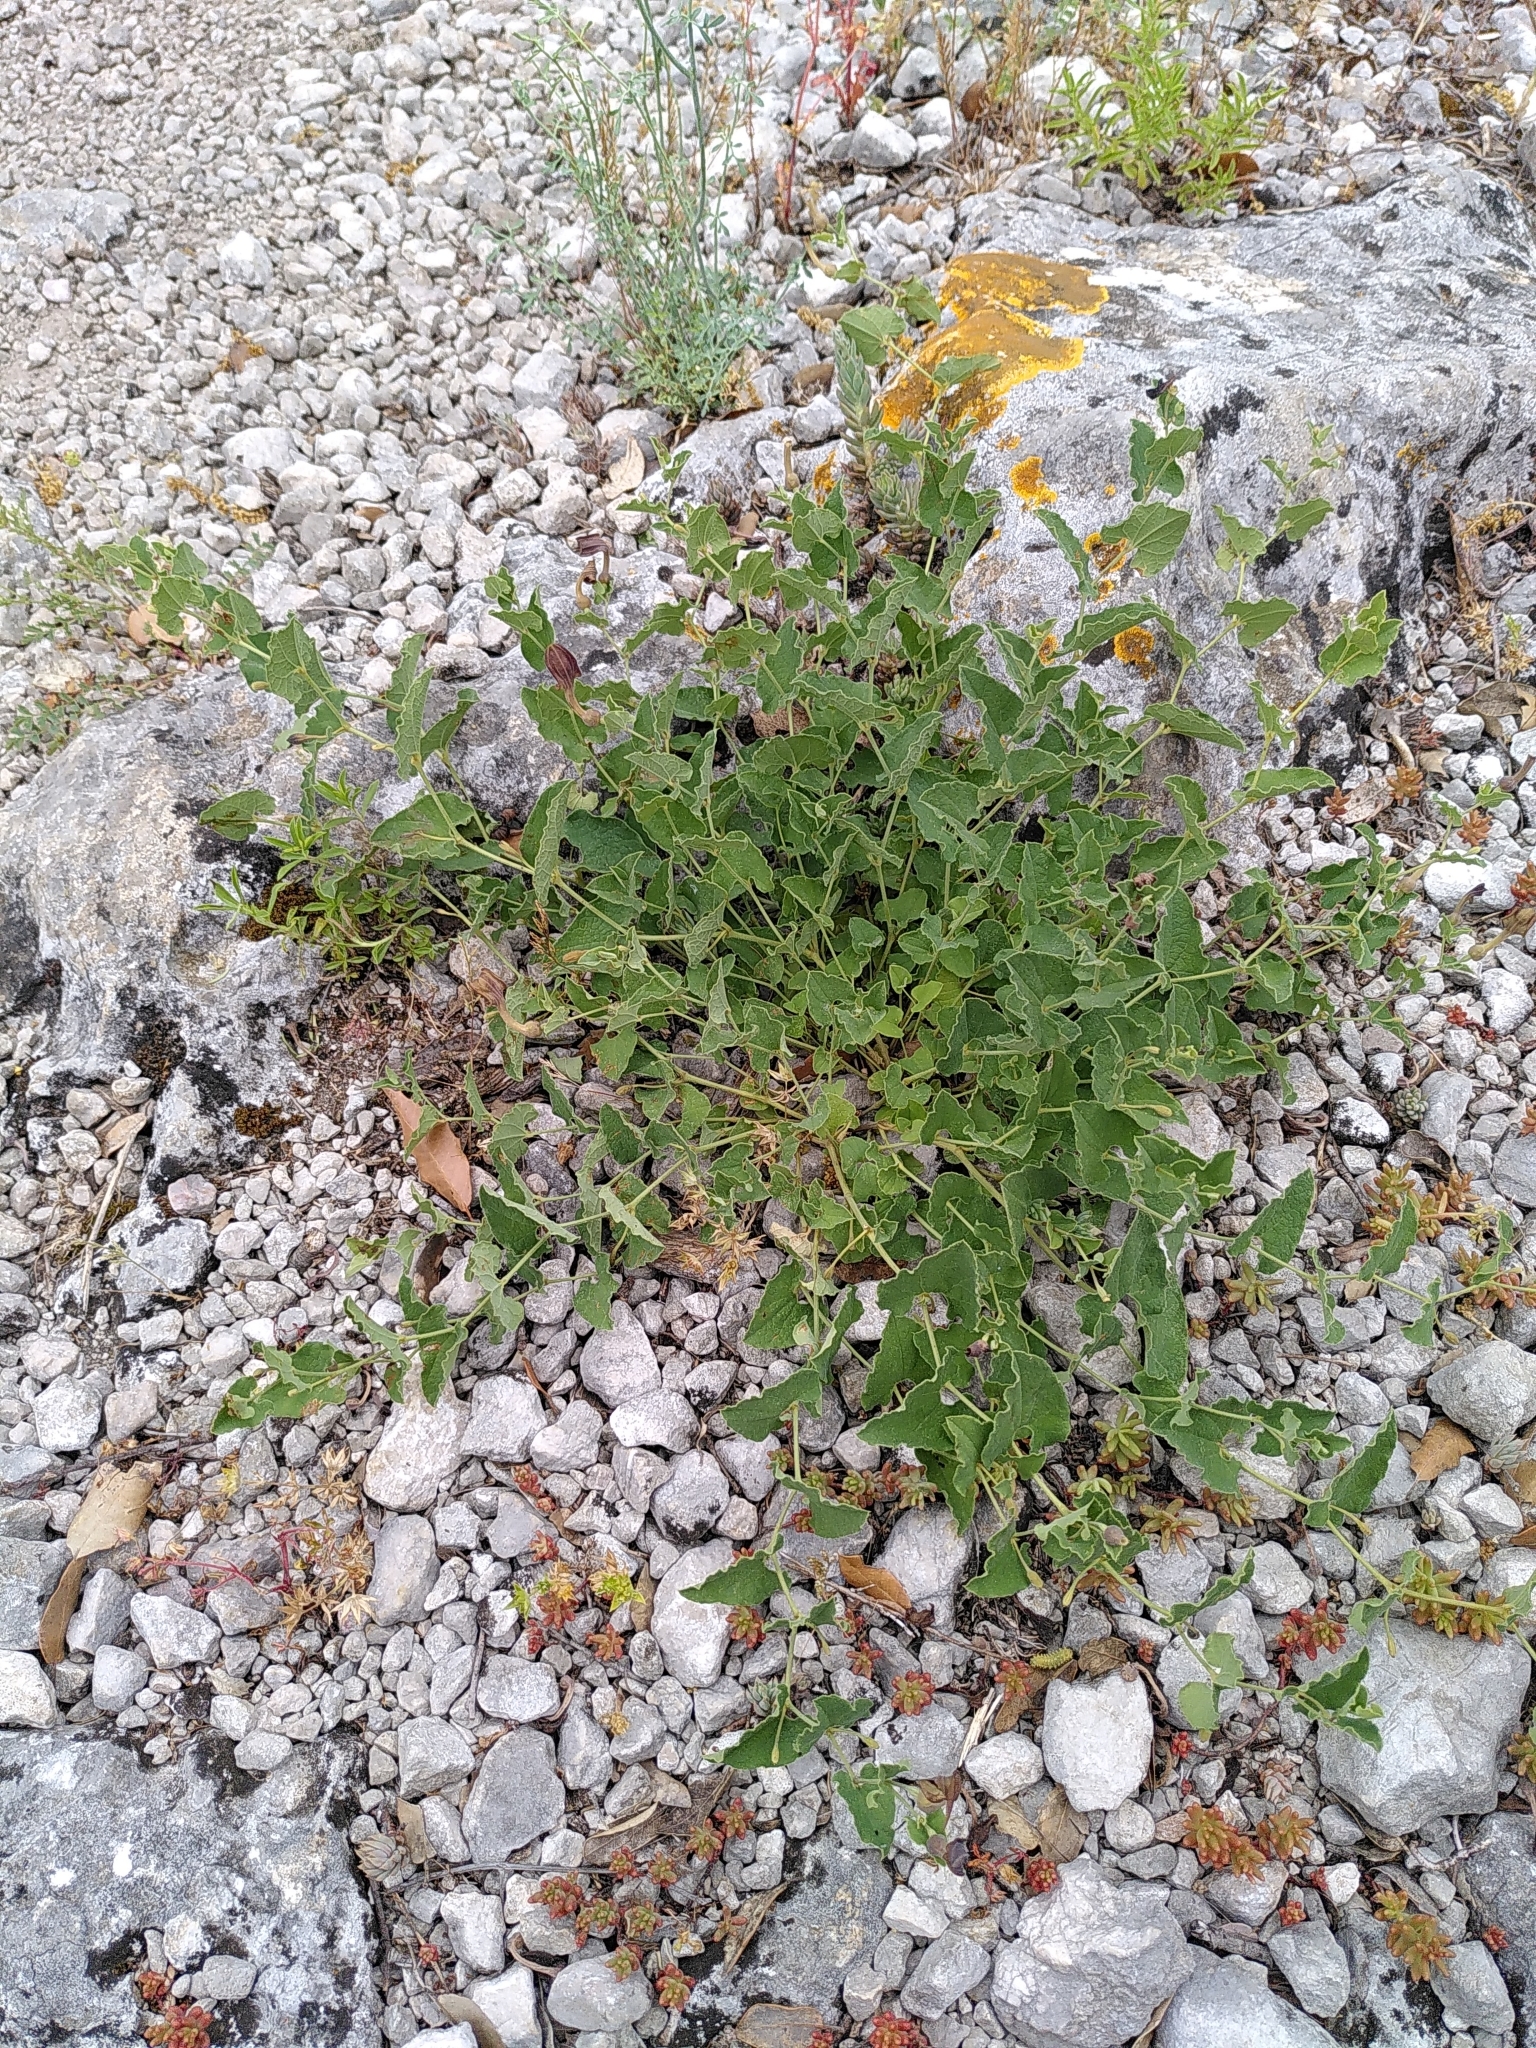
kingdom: Plantae
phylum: Tracheophyta
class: Magnoliopsida
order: Piperales
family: Aristolochiaceae
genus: Aristolochia
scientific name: Aristolochia pistolochia
